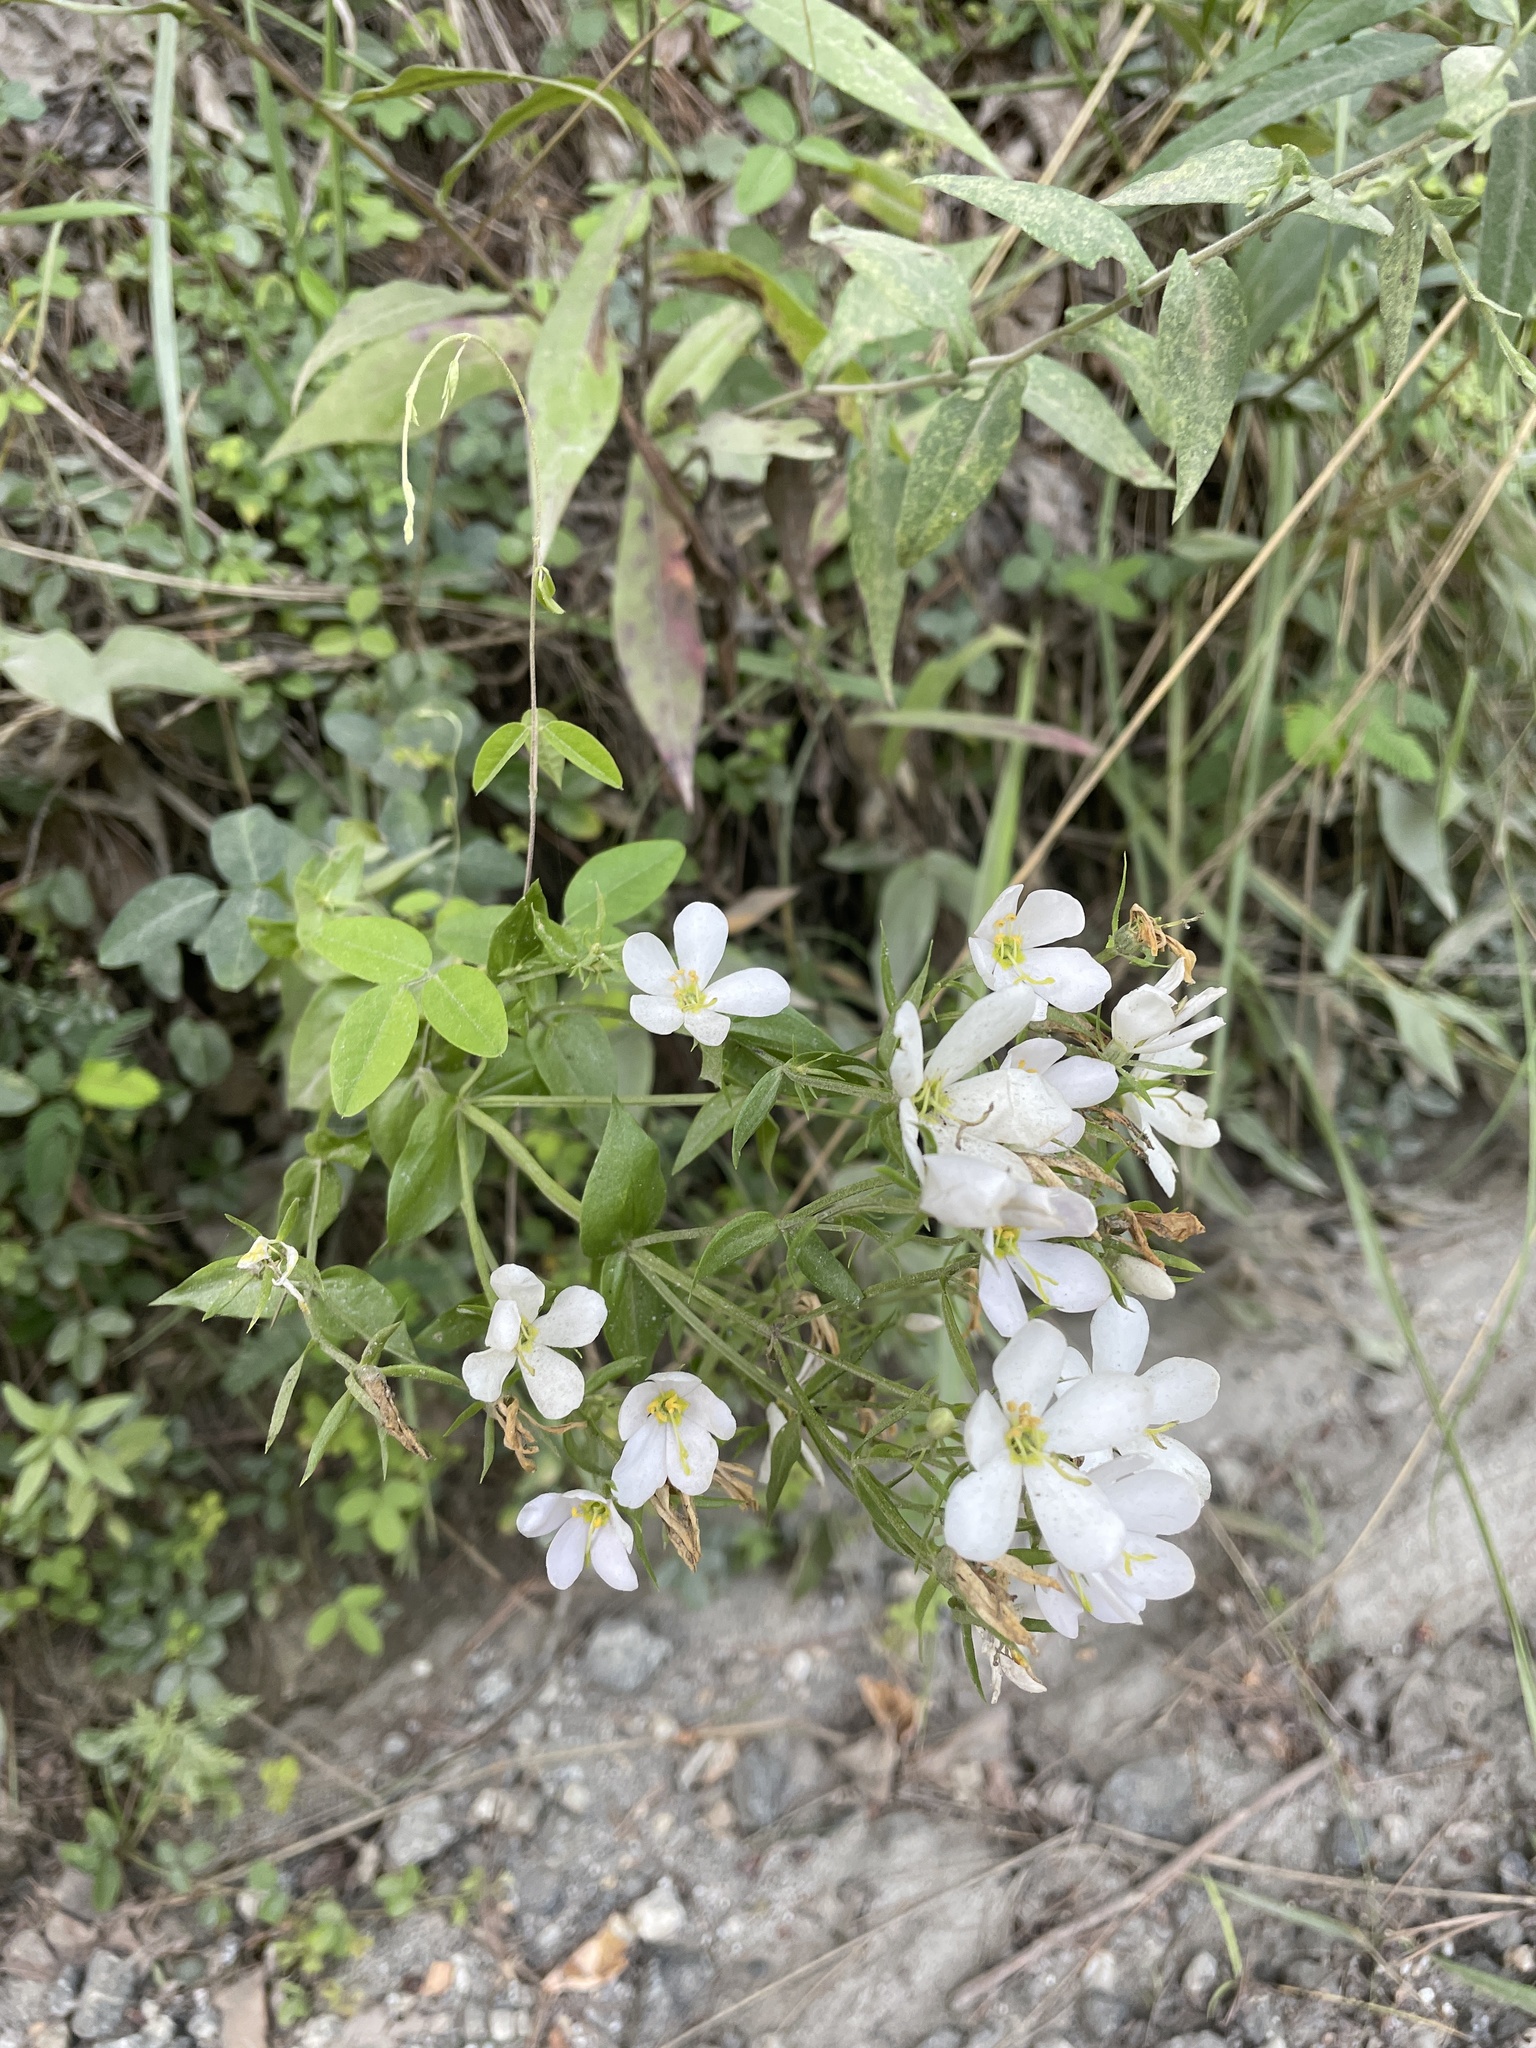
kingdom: Plantae
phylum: Tracheophyta
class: Magnoliopsida
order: Gentianales
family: Gentianaceae
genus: Sabatia
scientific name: Sabatia angularis
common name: Rose-pink
